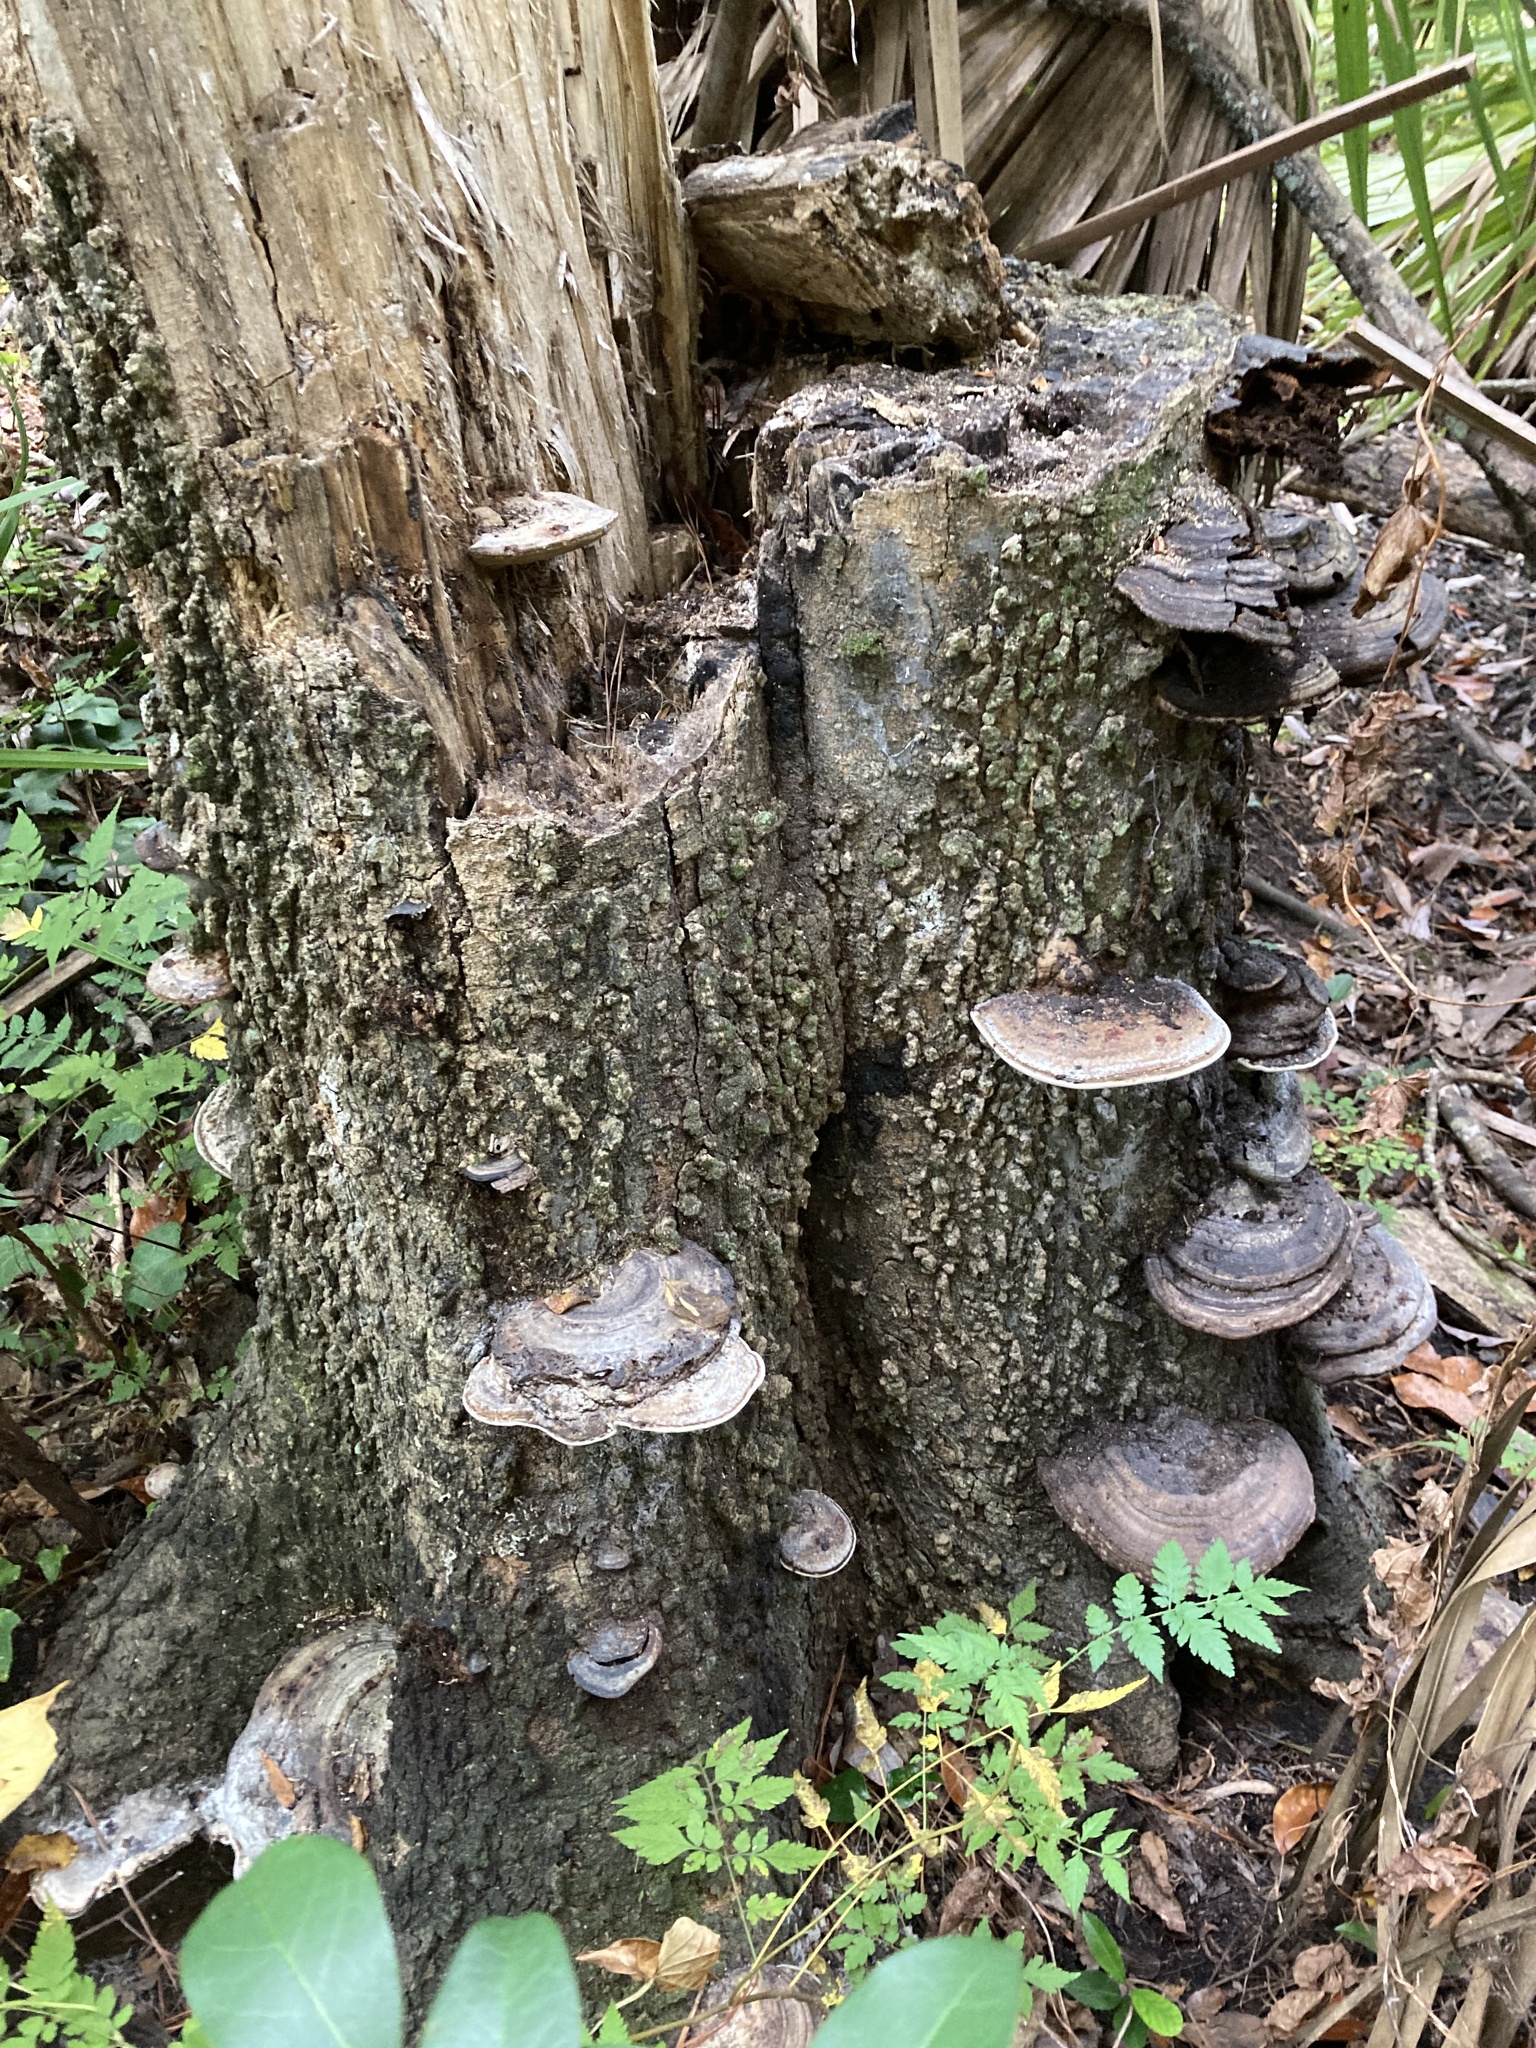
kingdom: Fungi
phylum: Basidiomycota
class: Agaricomycetes
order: Polyporales
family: Polyporaceae
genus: Fomes
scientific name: Fomes fasciatus
